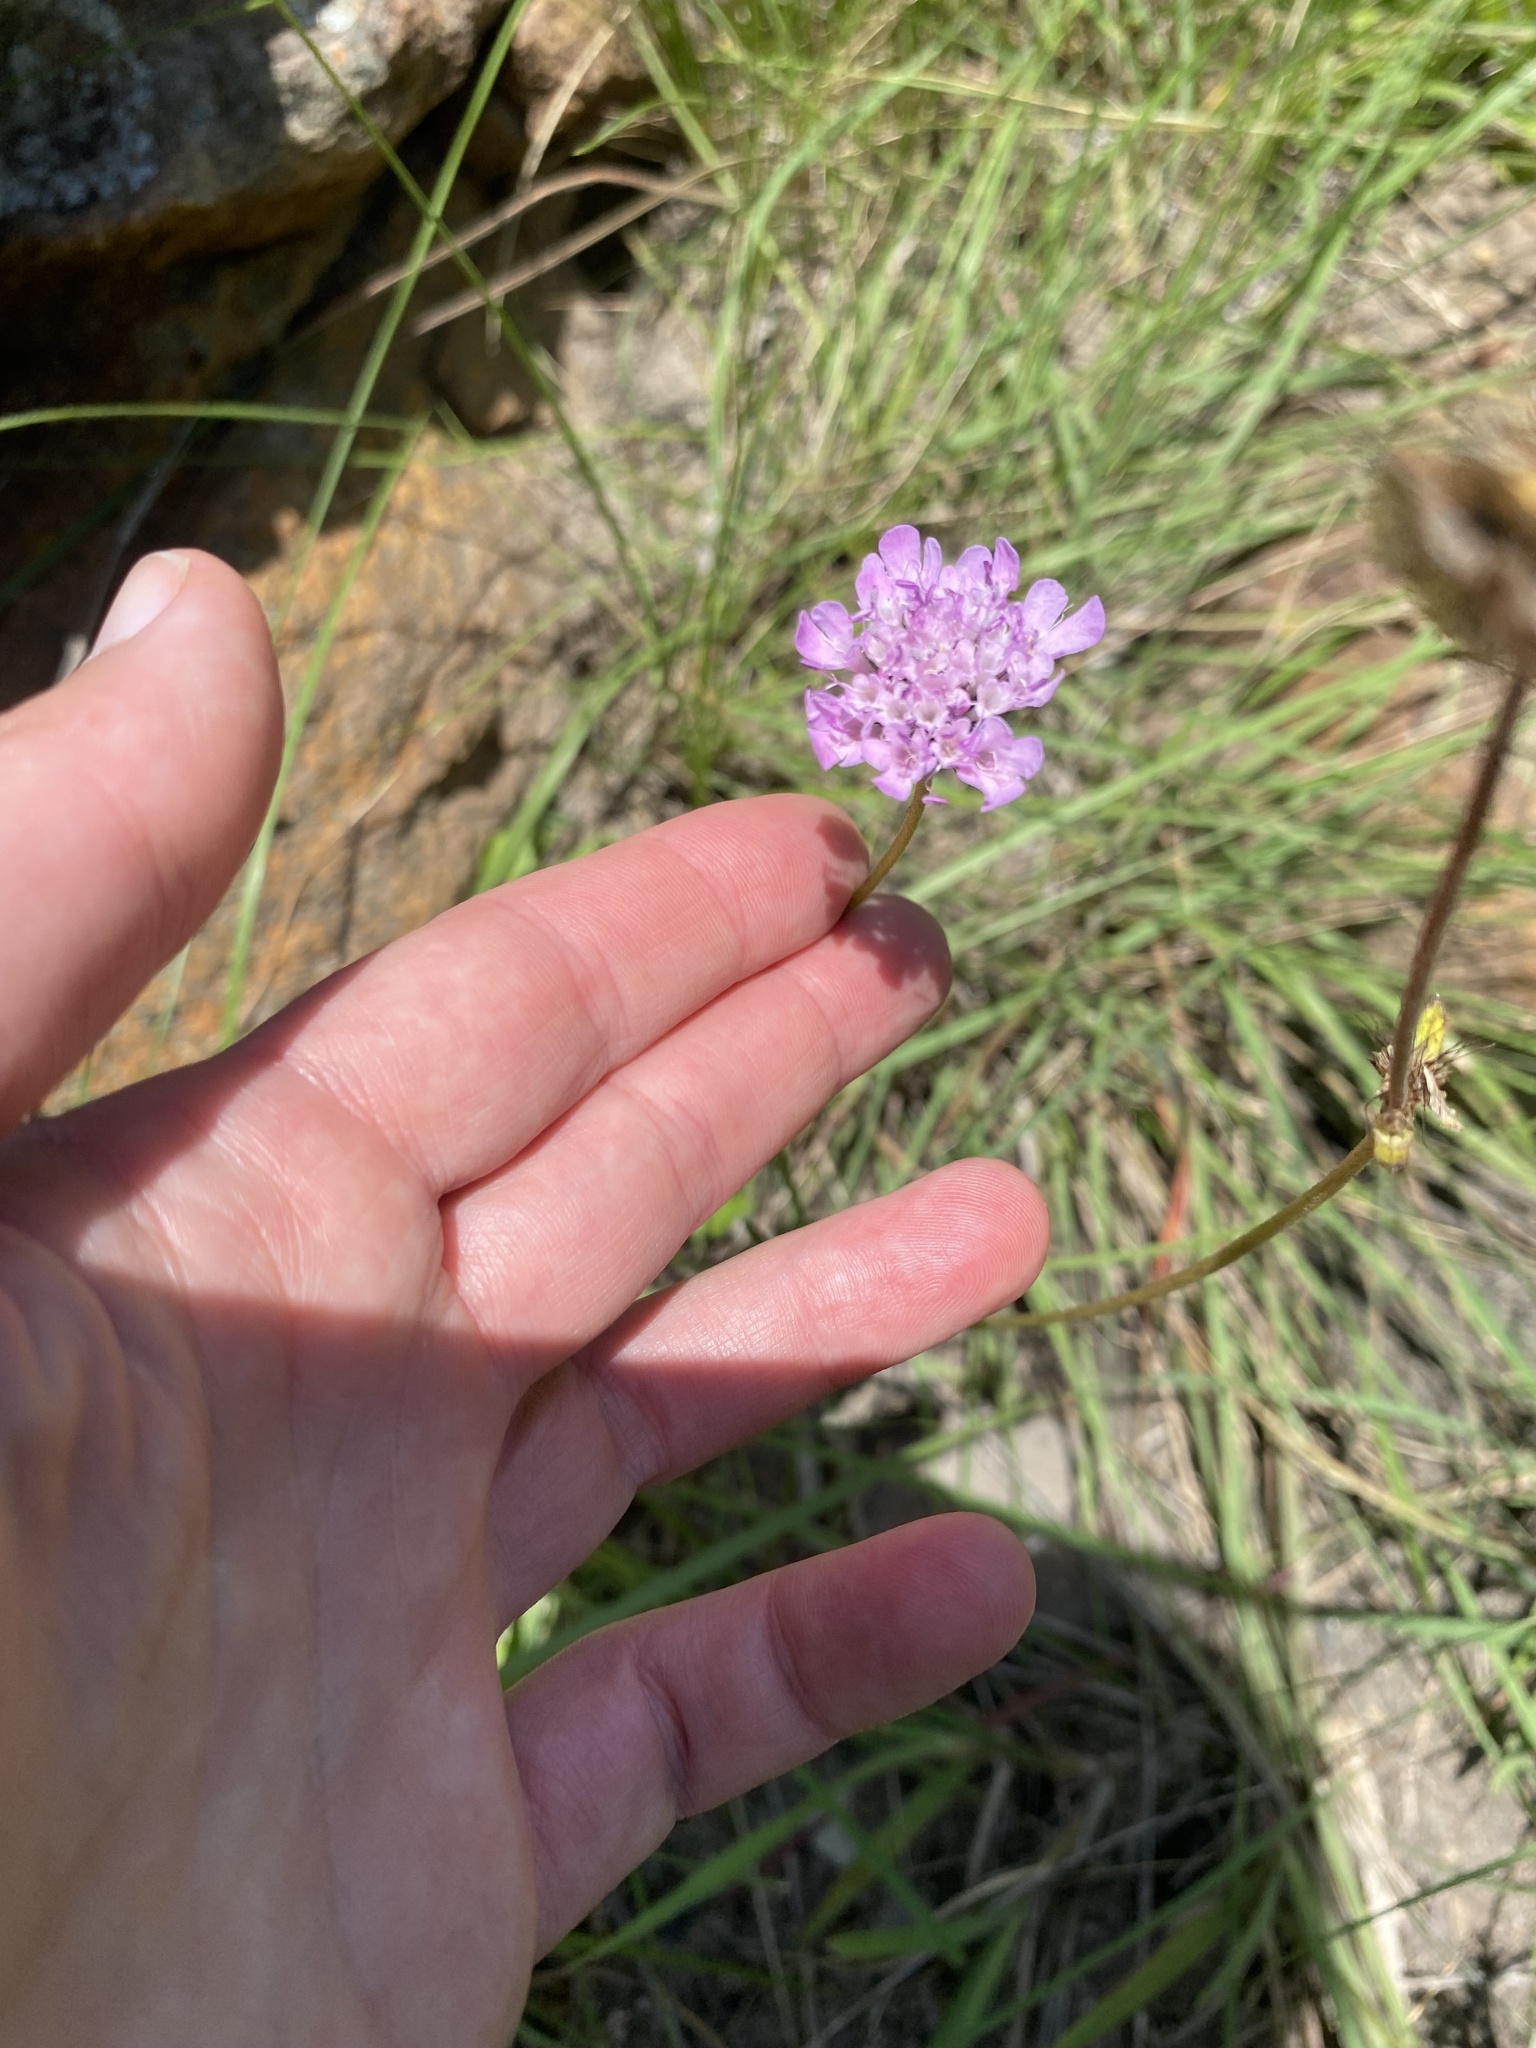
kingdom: Plantae
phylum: Tracheophyta
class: Magnoliopsida
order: Dipsacales
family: Caprifoliaceae
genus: Scabiosa
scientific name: Scabiosa columbaria
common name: Small scabious
